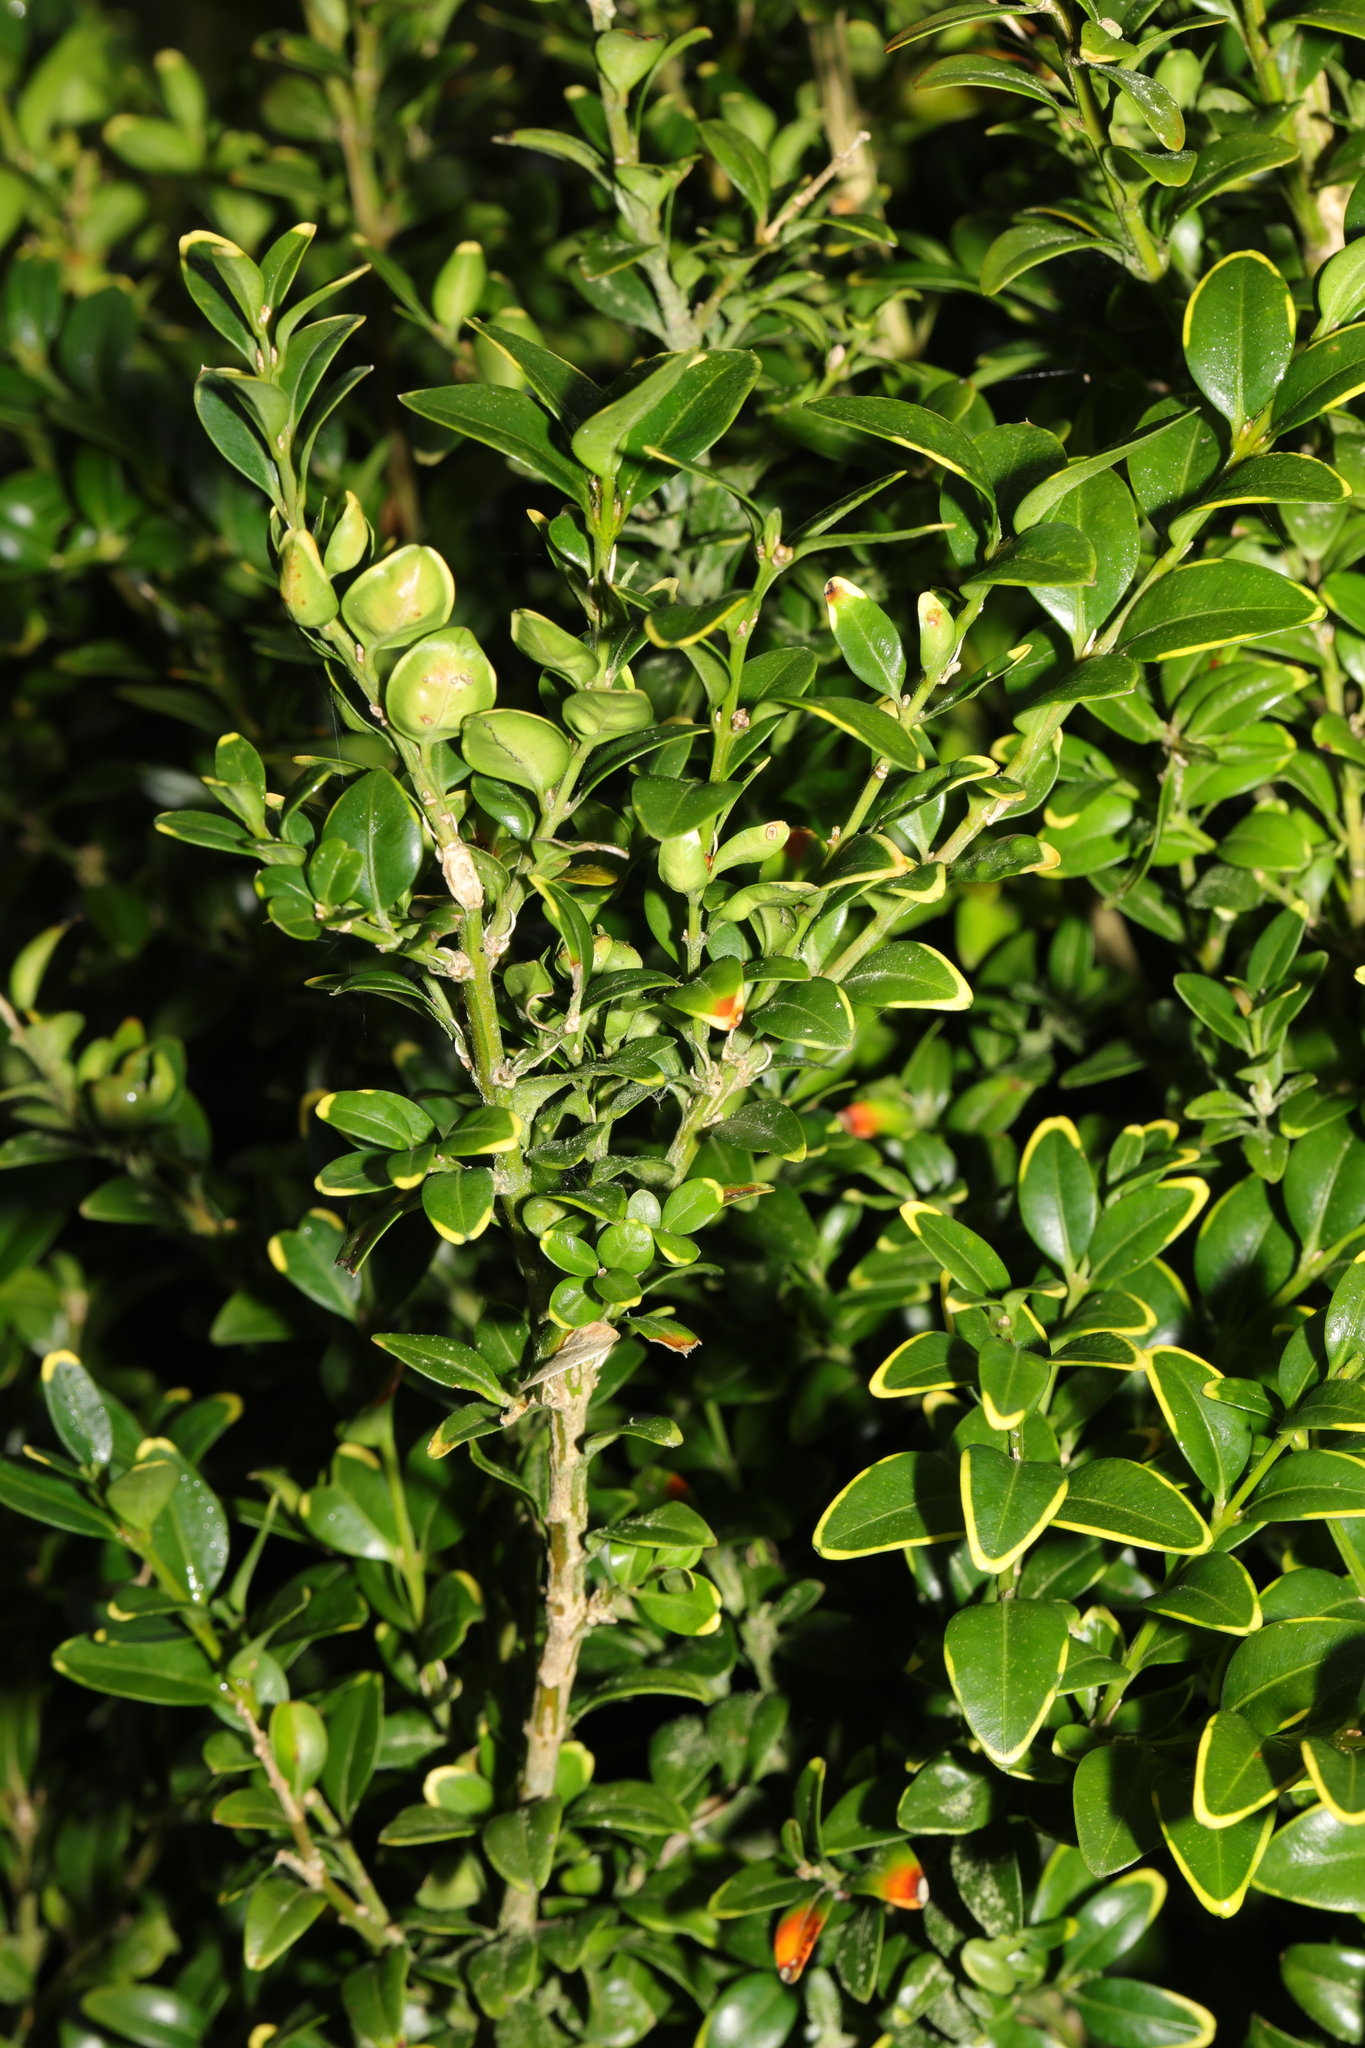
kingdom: Plantae
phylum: Tracheophyta
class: Magnoliopsida
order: Buxales
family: Buxaceae
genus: Buxus
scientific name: Buxus sempervirens
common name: Box
